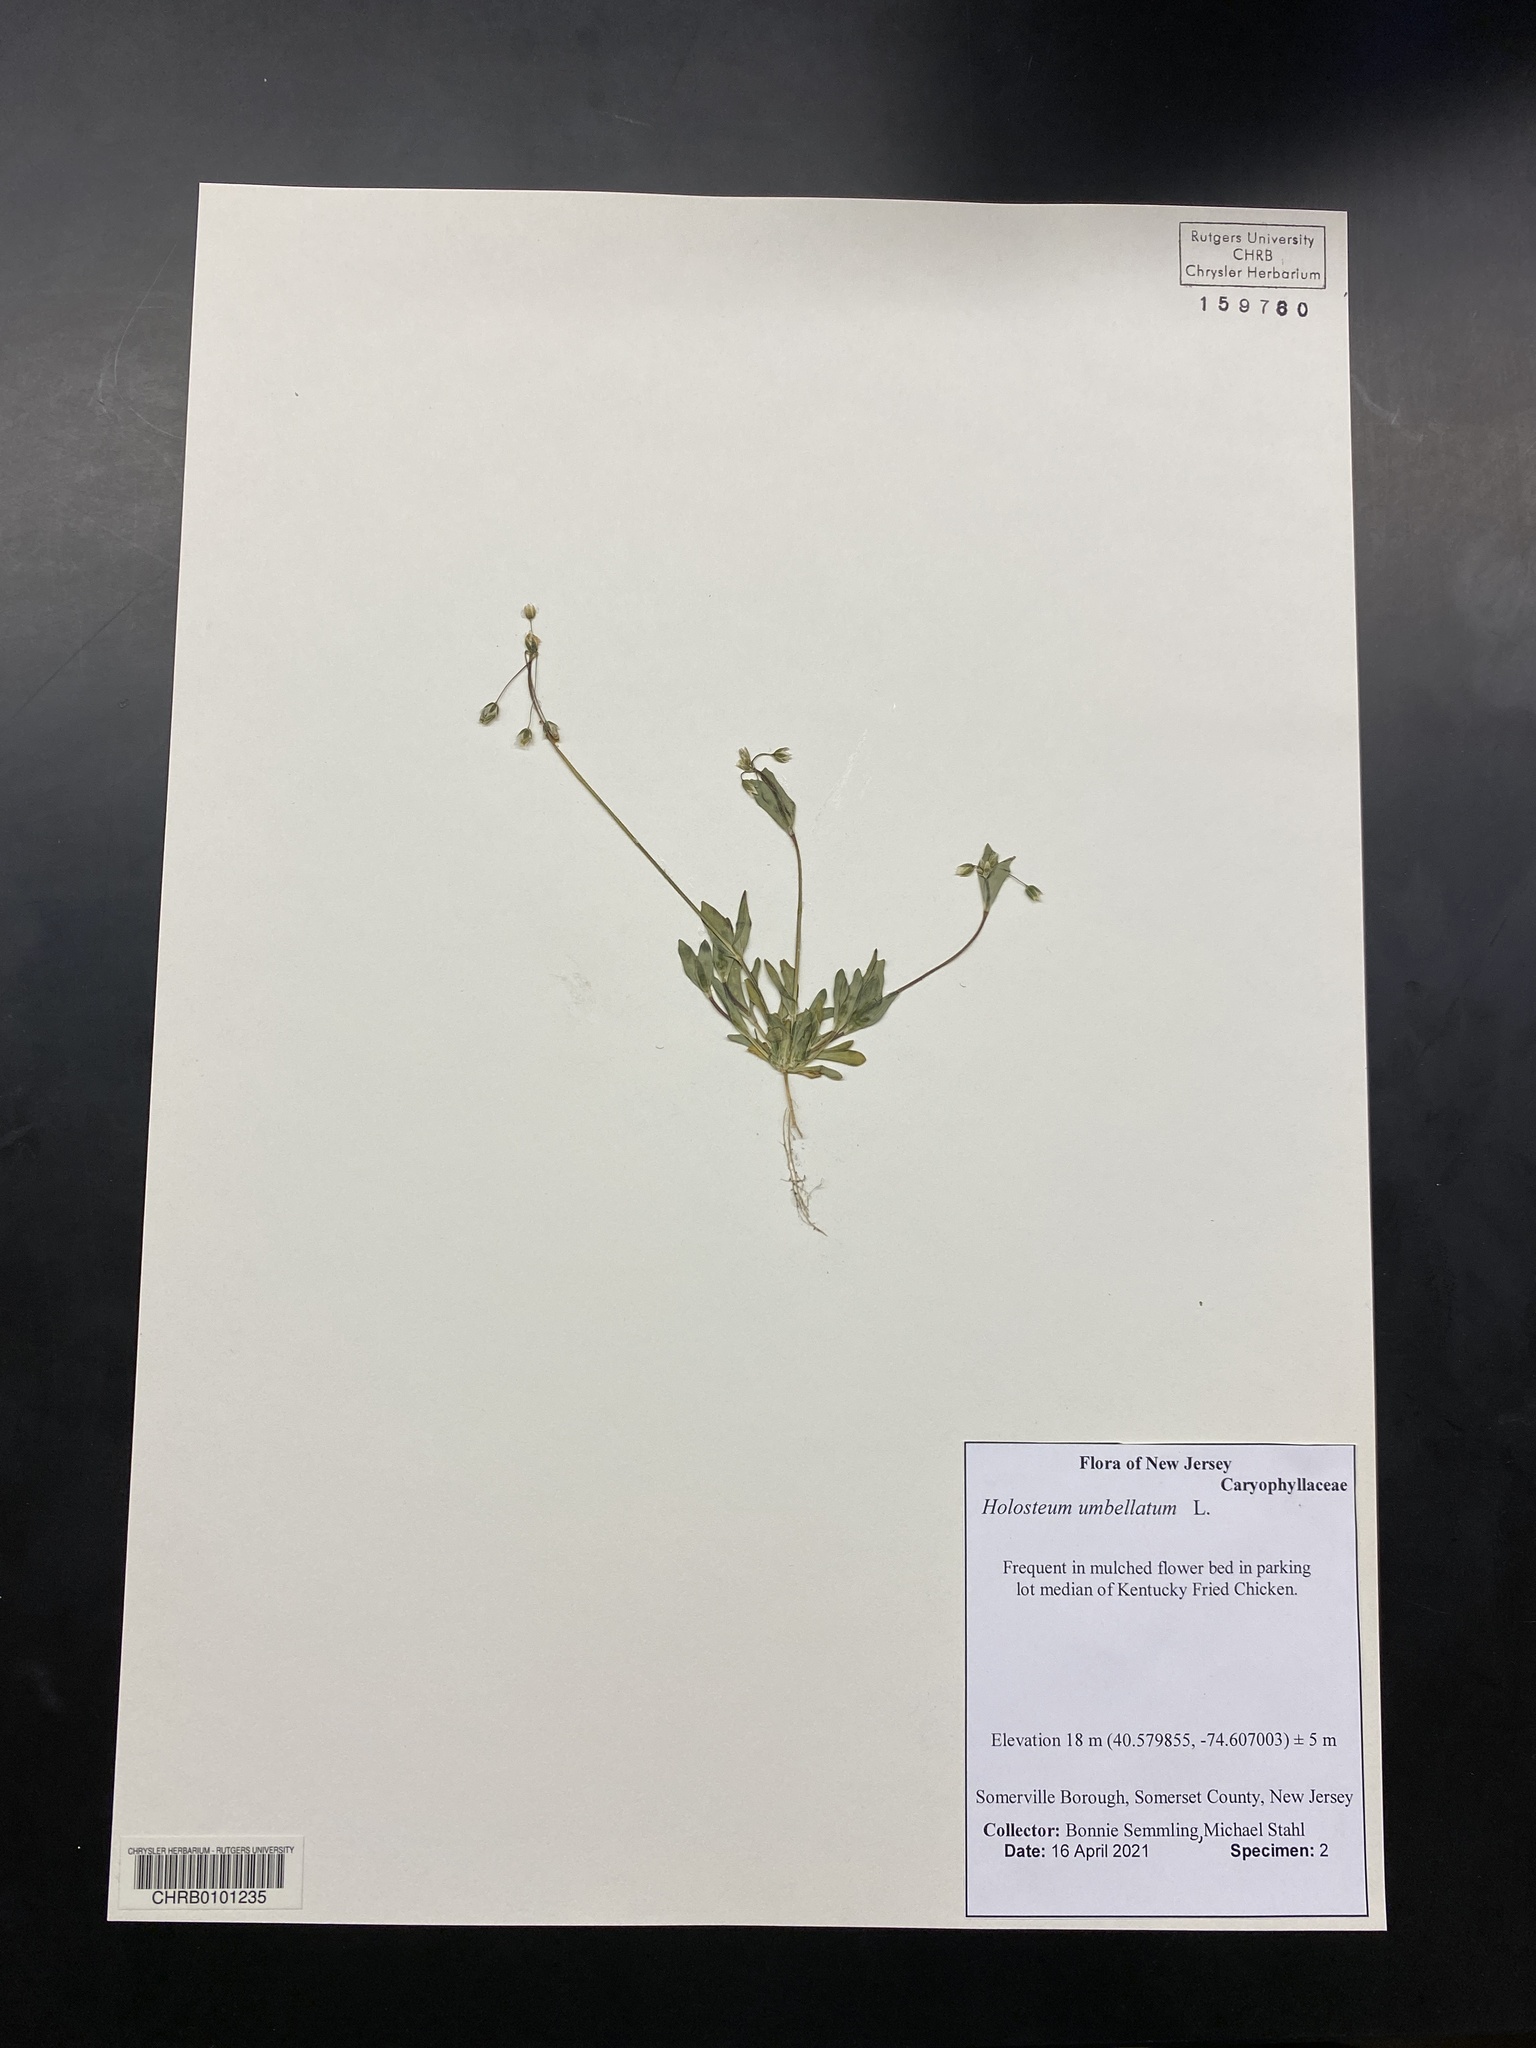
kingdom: Plantae
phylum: Tracheophyta
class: Magnoliopsida
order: Caryophyllales
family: Caryophyllaceae
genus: Holosteum
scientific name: Holosteum umbellatum
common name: Jagged chickweed
